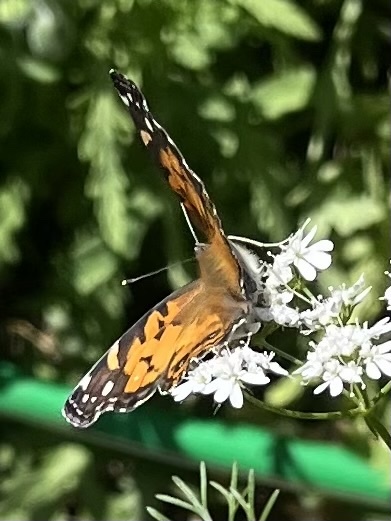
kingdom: Animalia
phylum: Arthropoda
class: Insecta
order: Lepidoptera
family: Nymphalidae
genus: Vanessa
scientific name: Vanessa virginiensis
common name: American lady
